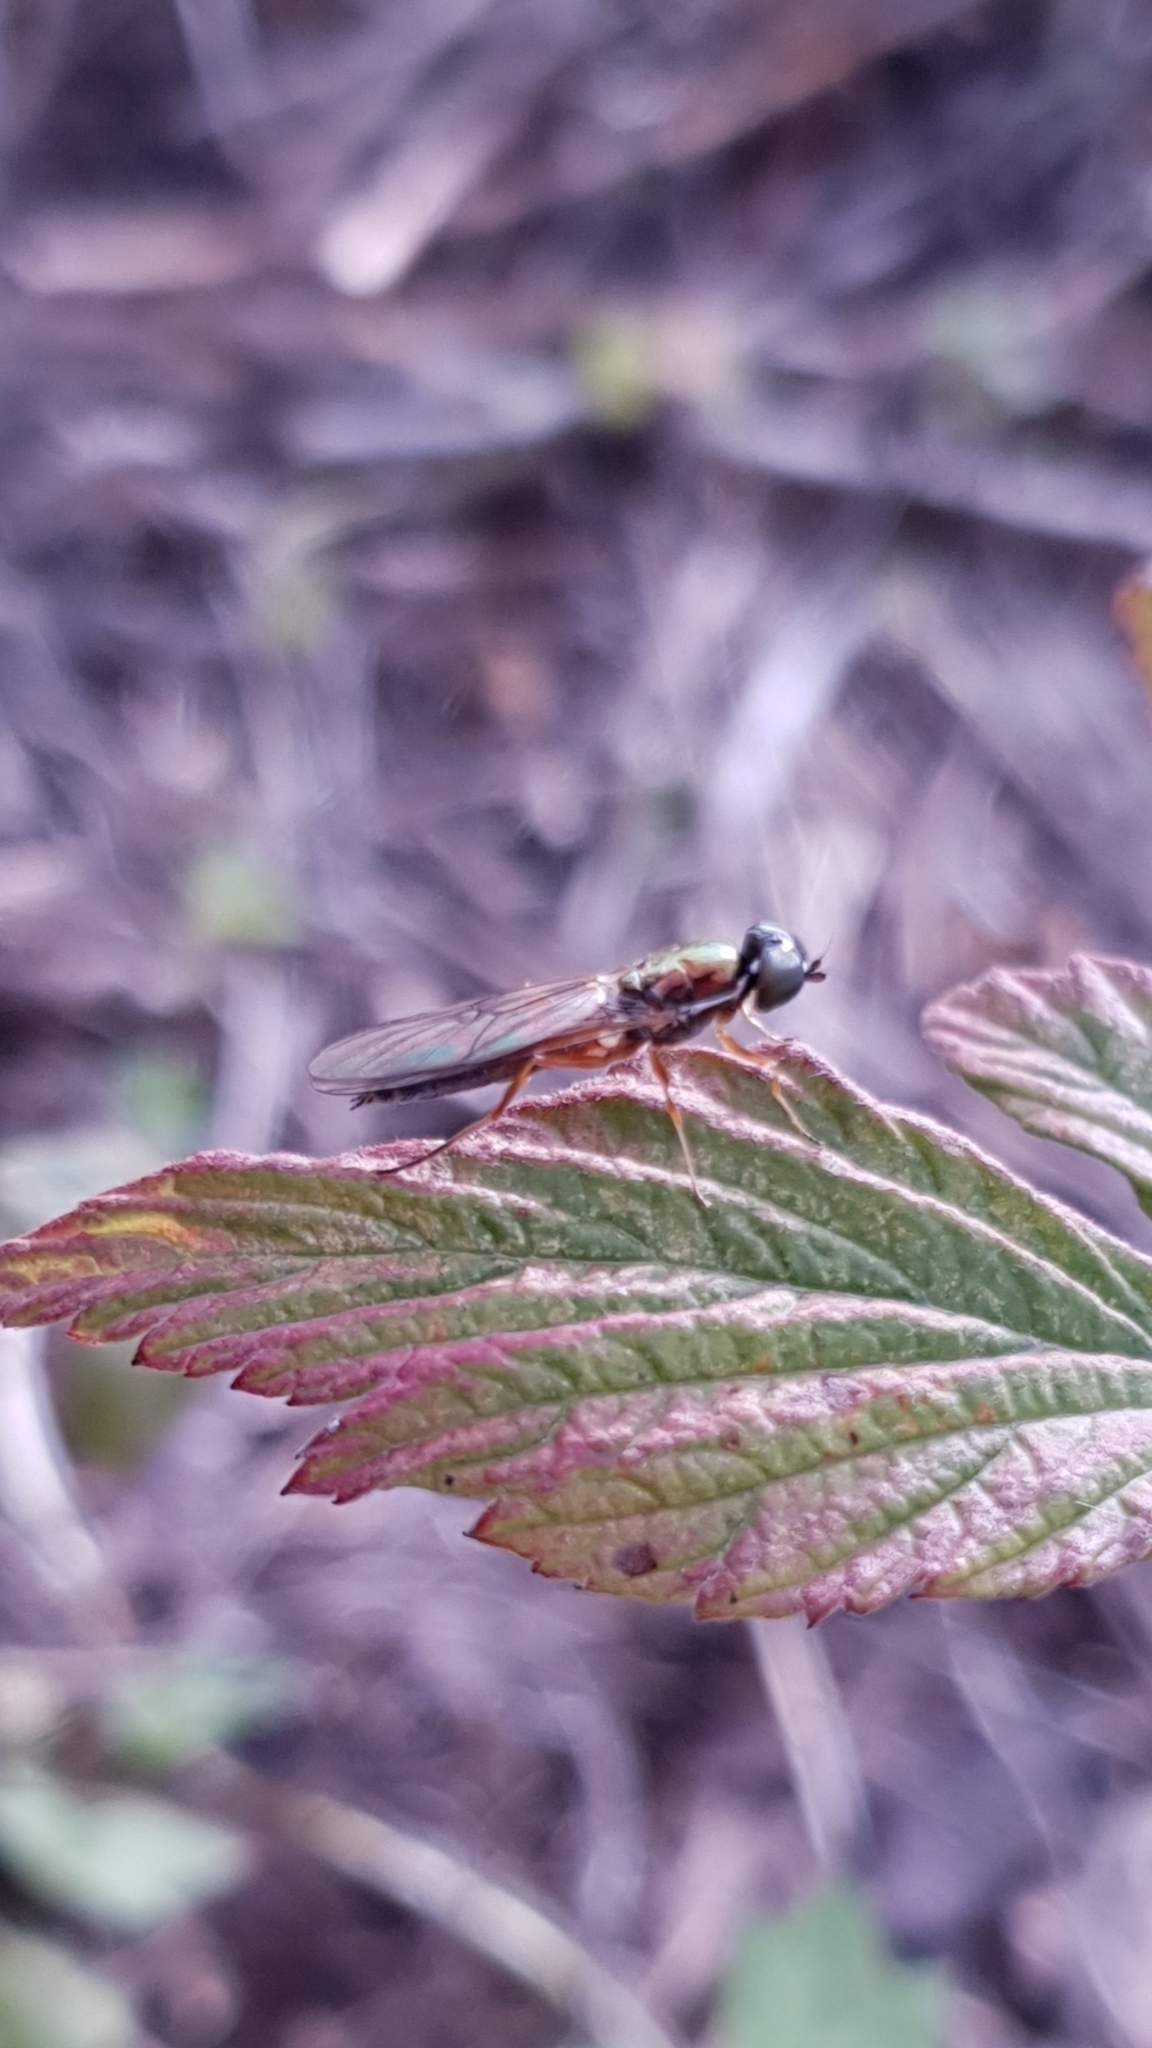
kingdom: Animalia
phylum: Arthropoda
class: Insecta
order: Diptera
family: Stratiomyidae
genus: Sargus
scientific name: Sargus bipunctatus
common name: Twin-spot centurion
